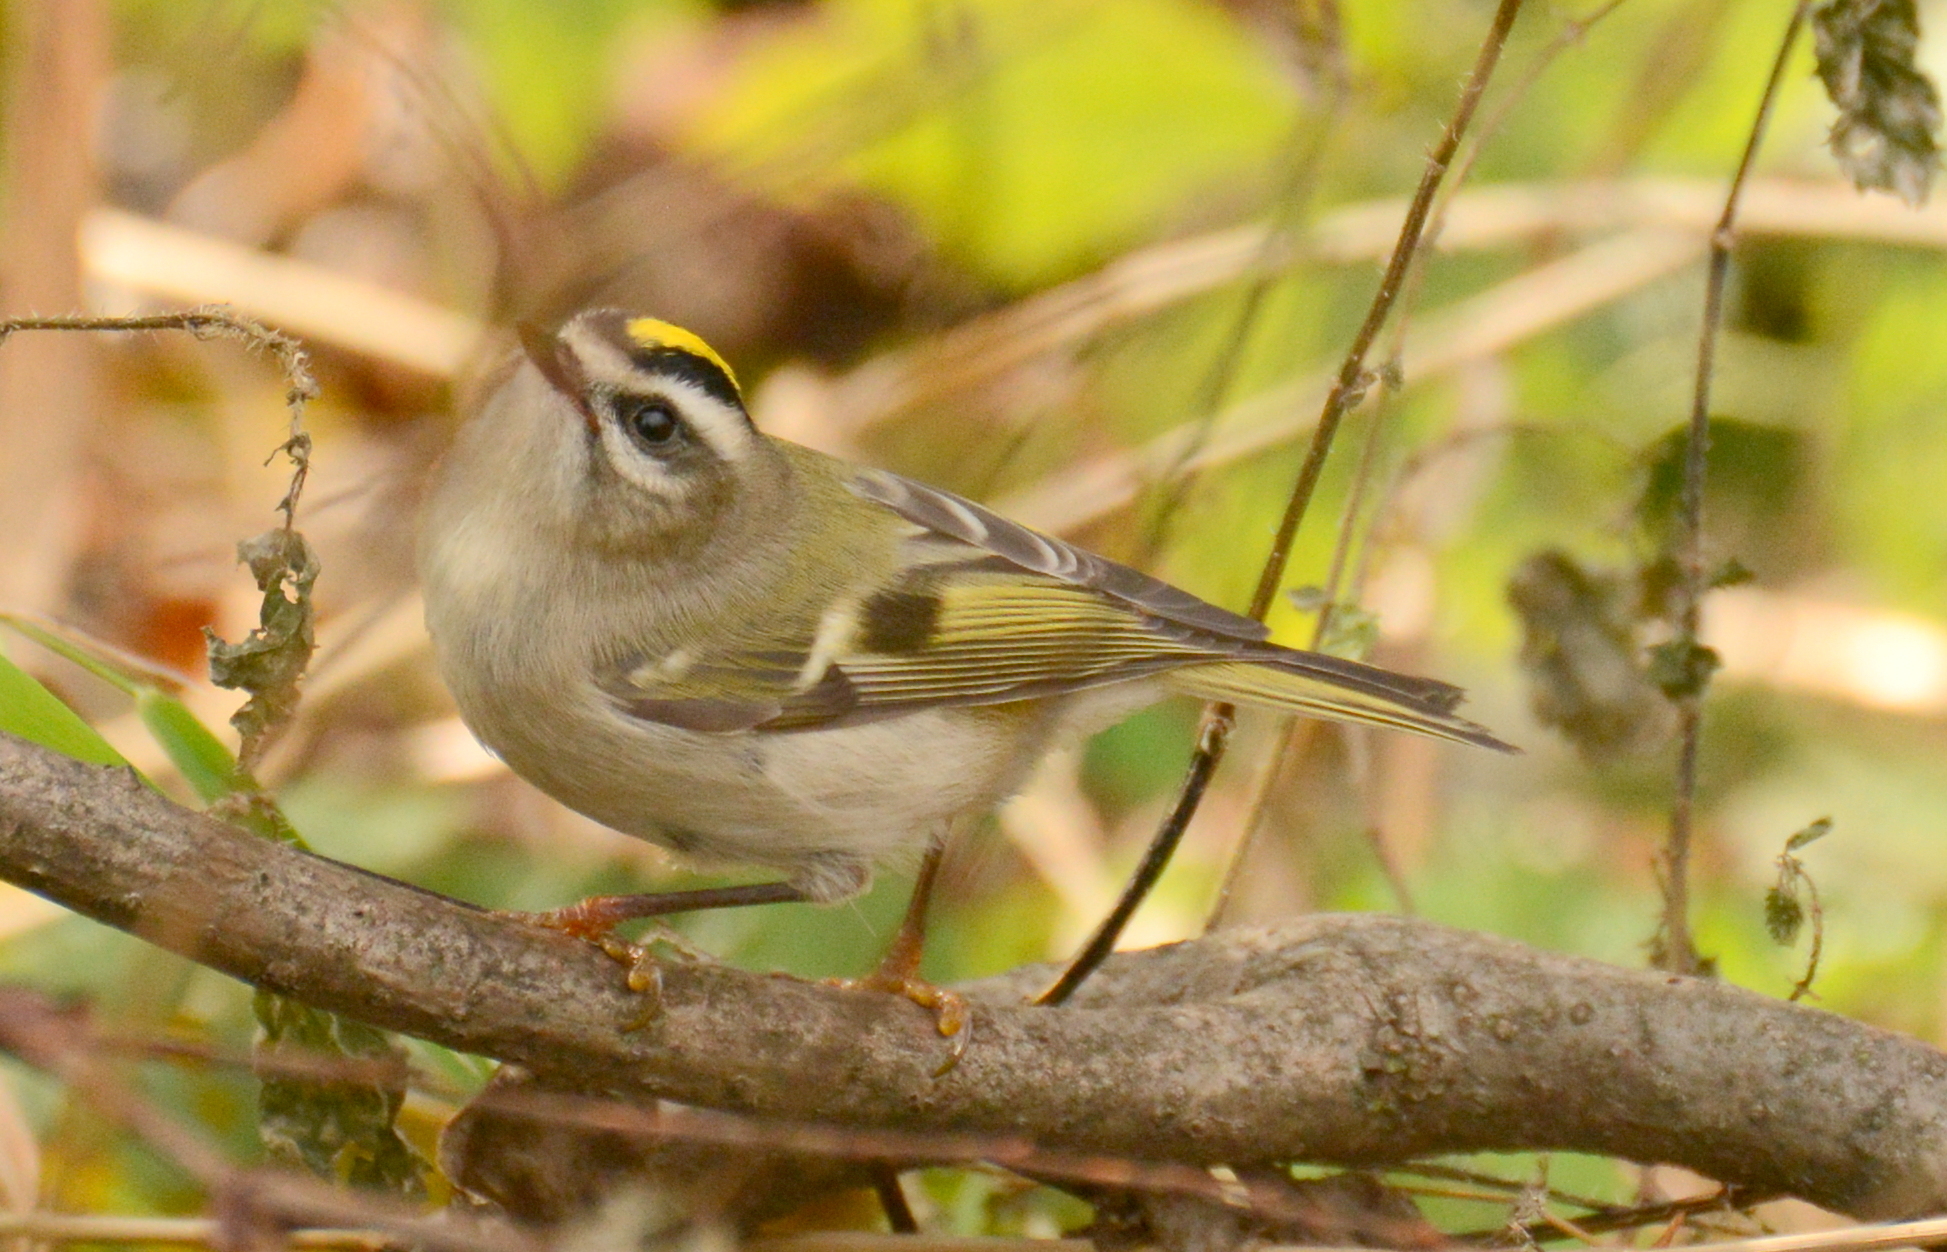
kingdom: Animalia
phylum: Chordata
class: Aves
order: Passeriformes
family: Regulidae
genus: Regulus
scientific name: Regulus satrapa
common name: Golden-crowned kinglet
